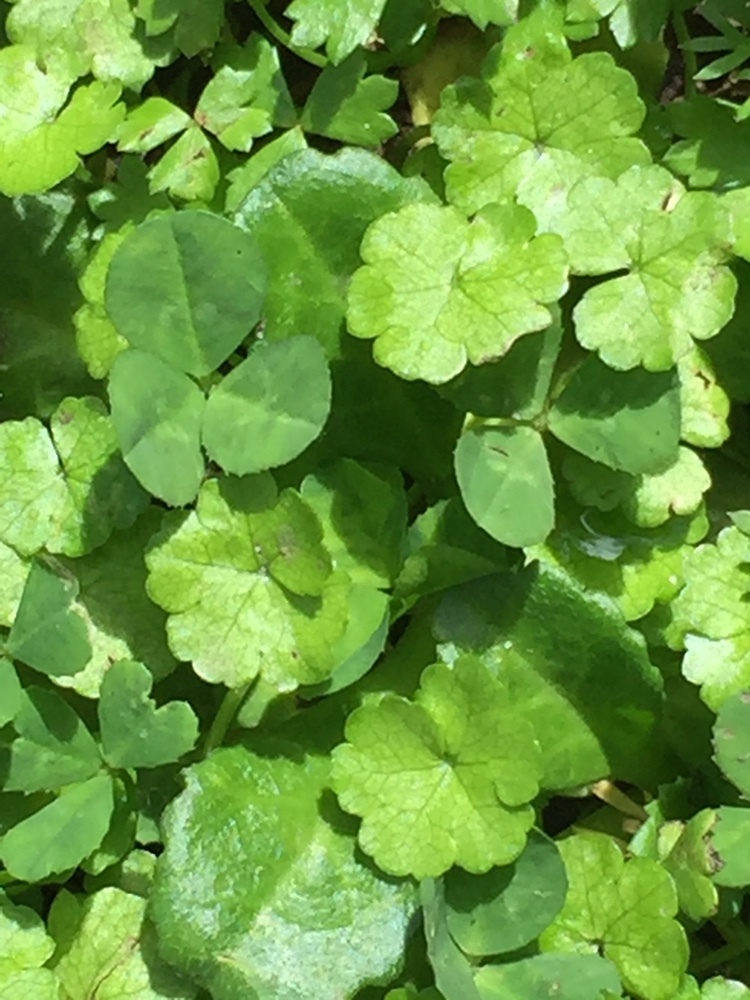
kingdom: Plantae
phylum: Tracheophyta
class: Magnoliopsida
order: Apiales
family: Araliaceae
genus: Hydrocotyle
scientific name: Hydrocotyle heteromeria
